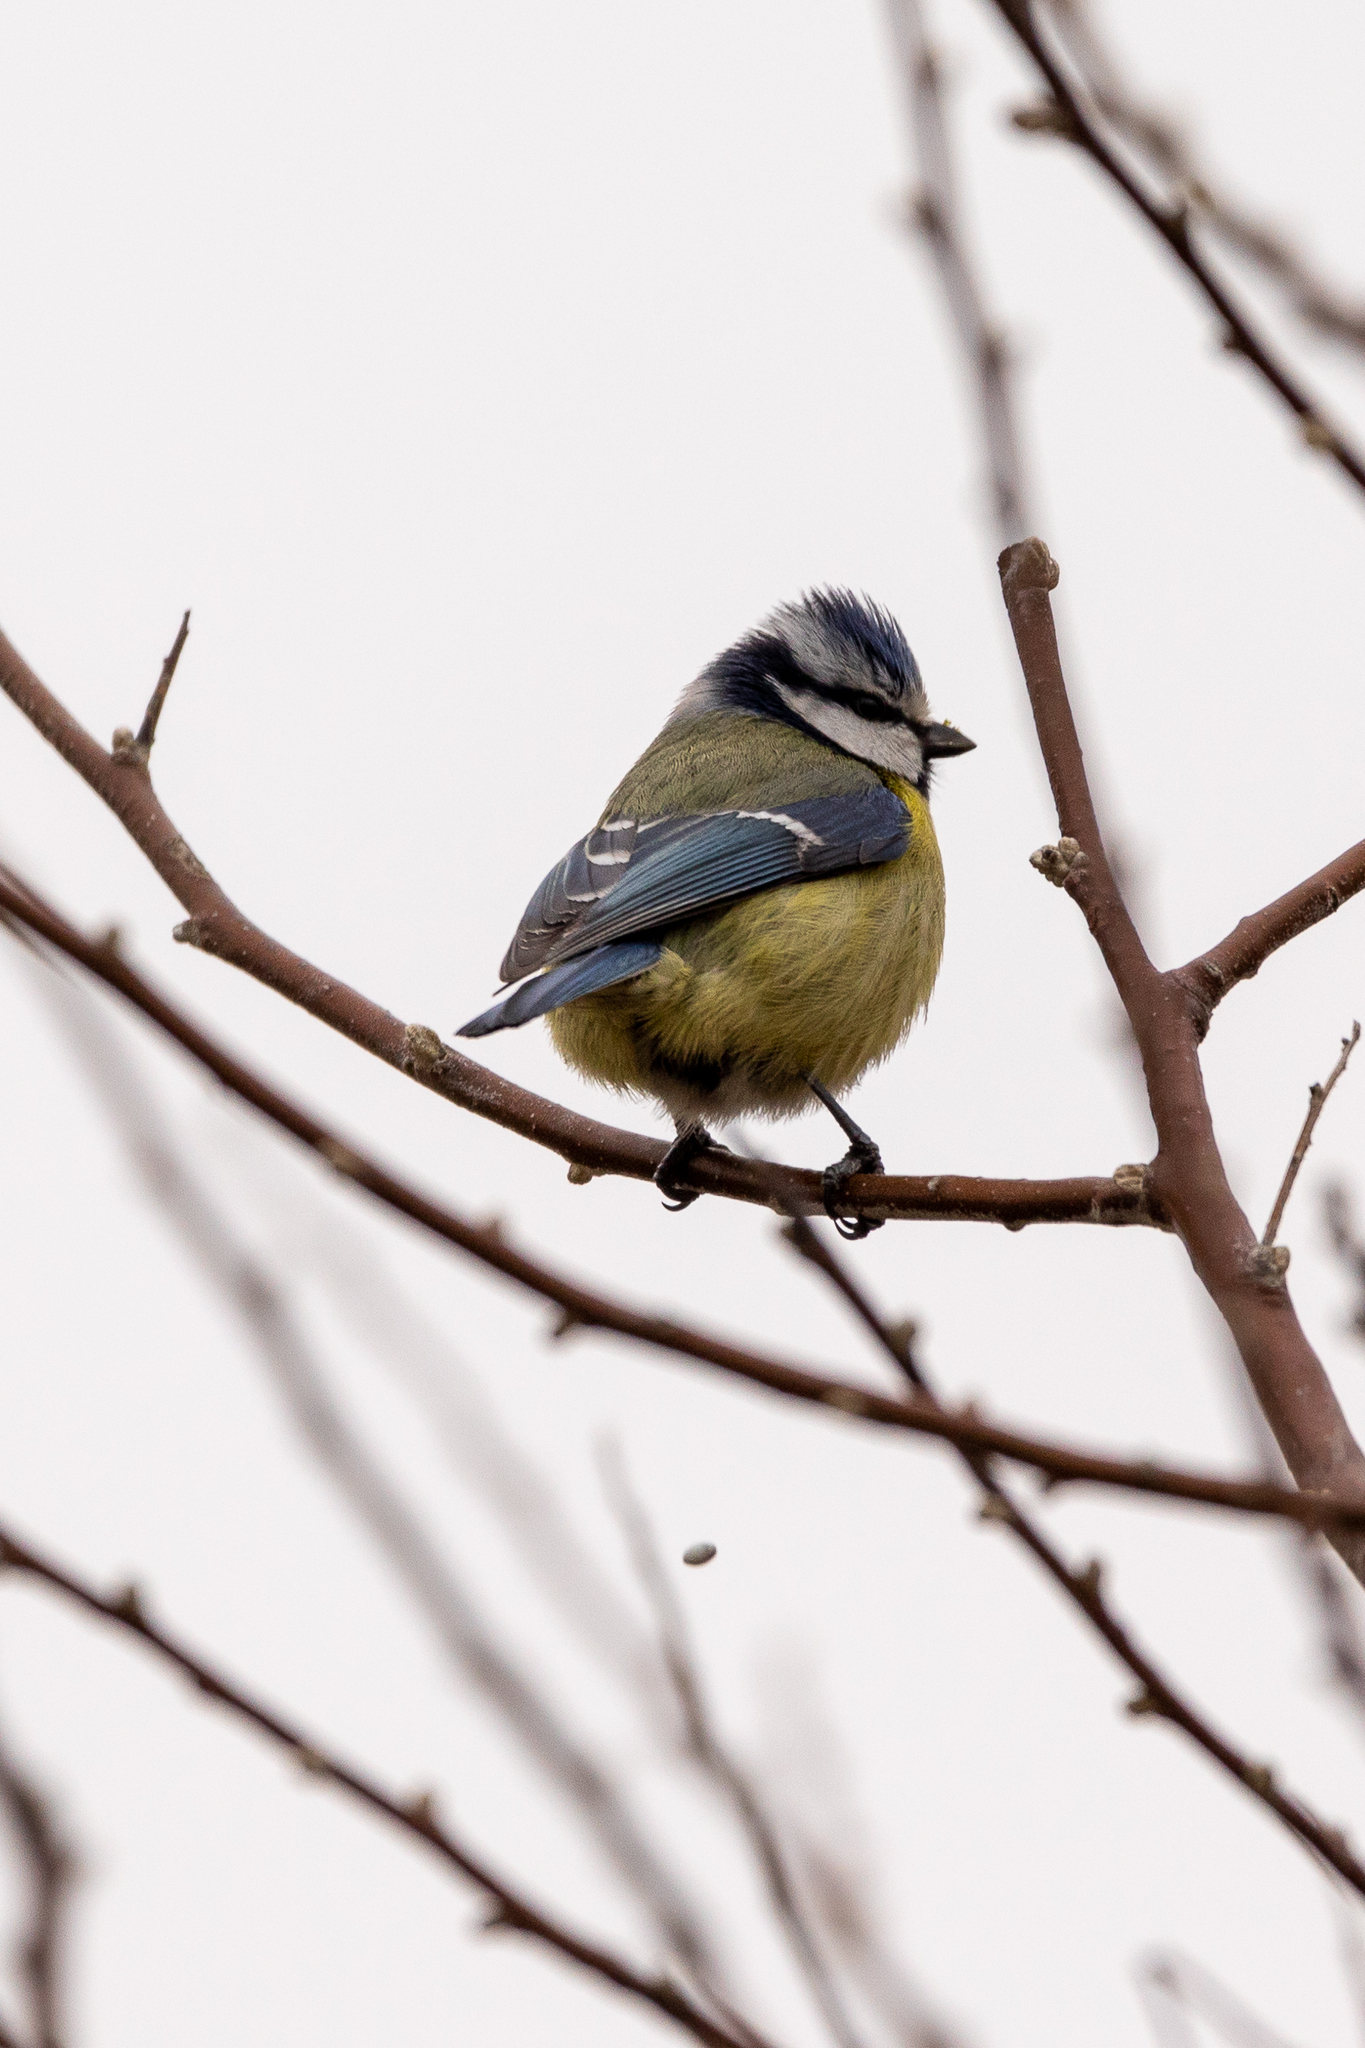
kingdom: Animalia
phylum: Chordata
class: Aves
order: Passeriformes
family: Paridae
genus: Cyanistes
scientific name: Cyanistes caeruleus
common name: Eurasian blue tit
